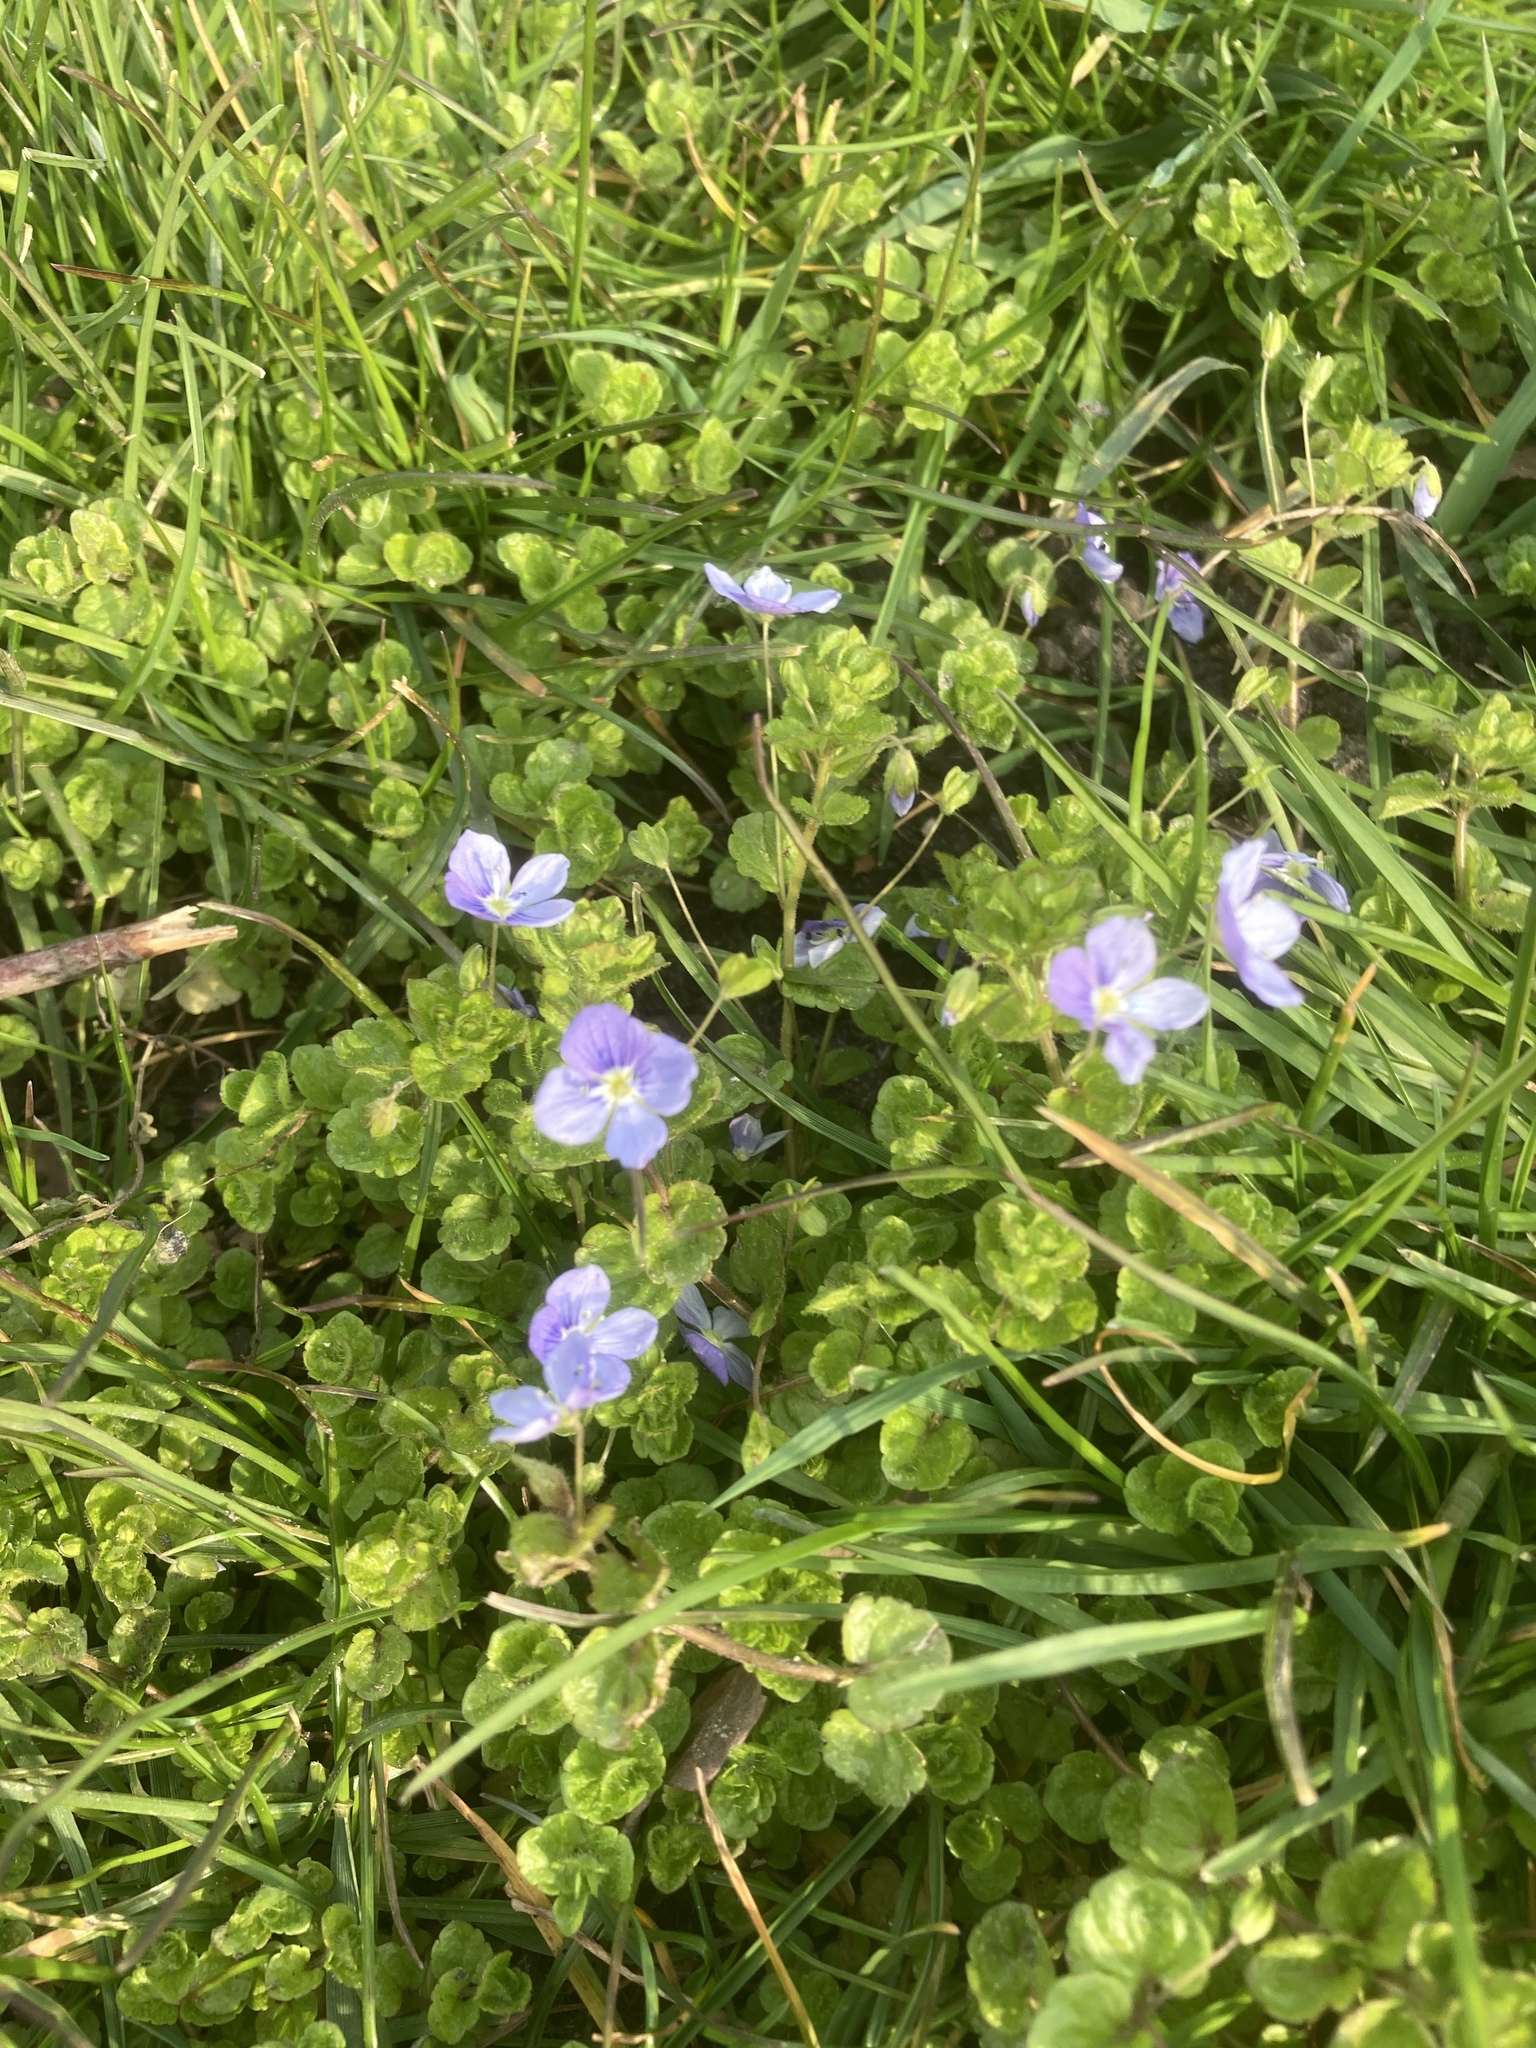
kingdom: Plantae
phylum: Tracheophyta
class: Magnoliopsida
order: Lamiales
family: Plantaginaceae
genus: Veronica
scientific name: Veronica filiformis
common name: Slender speedwell
